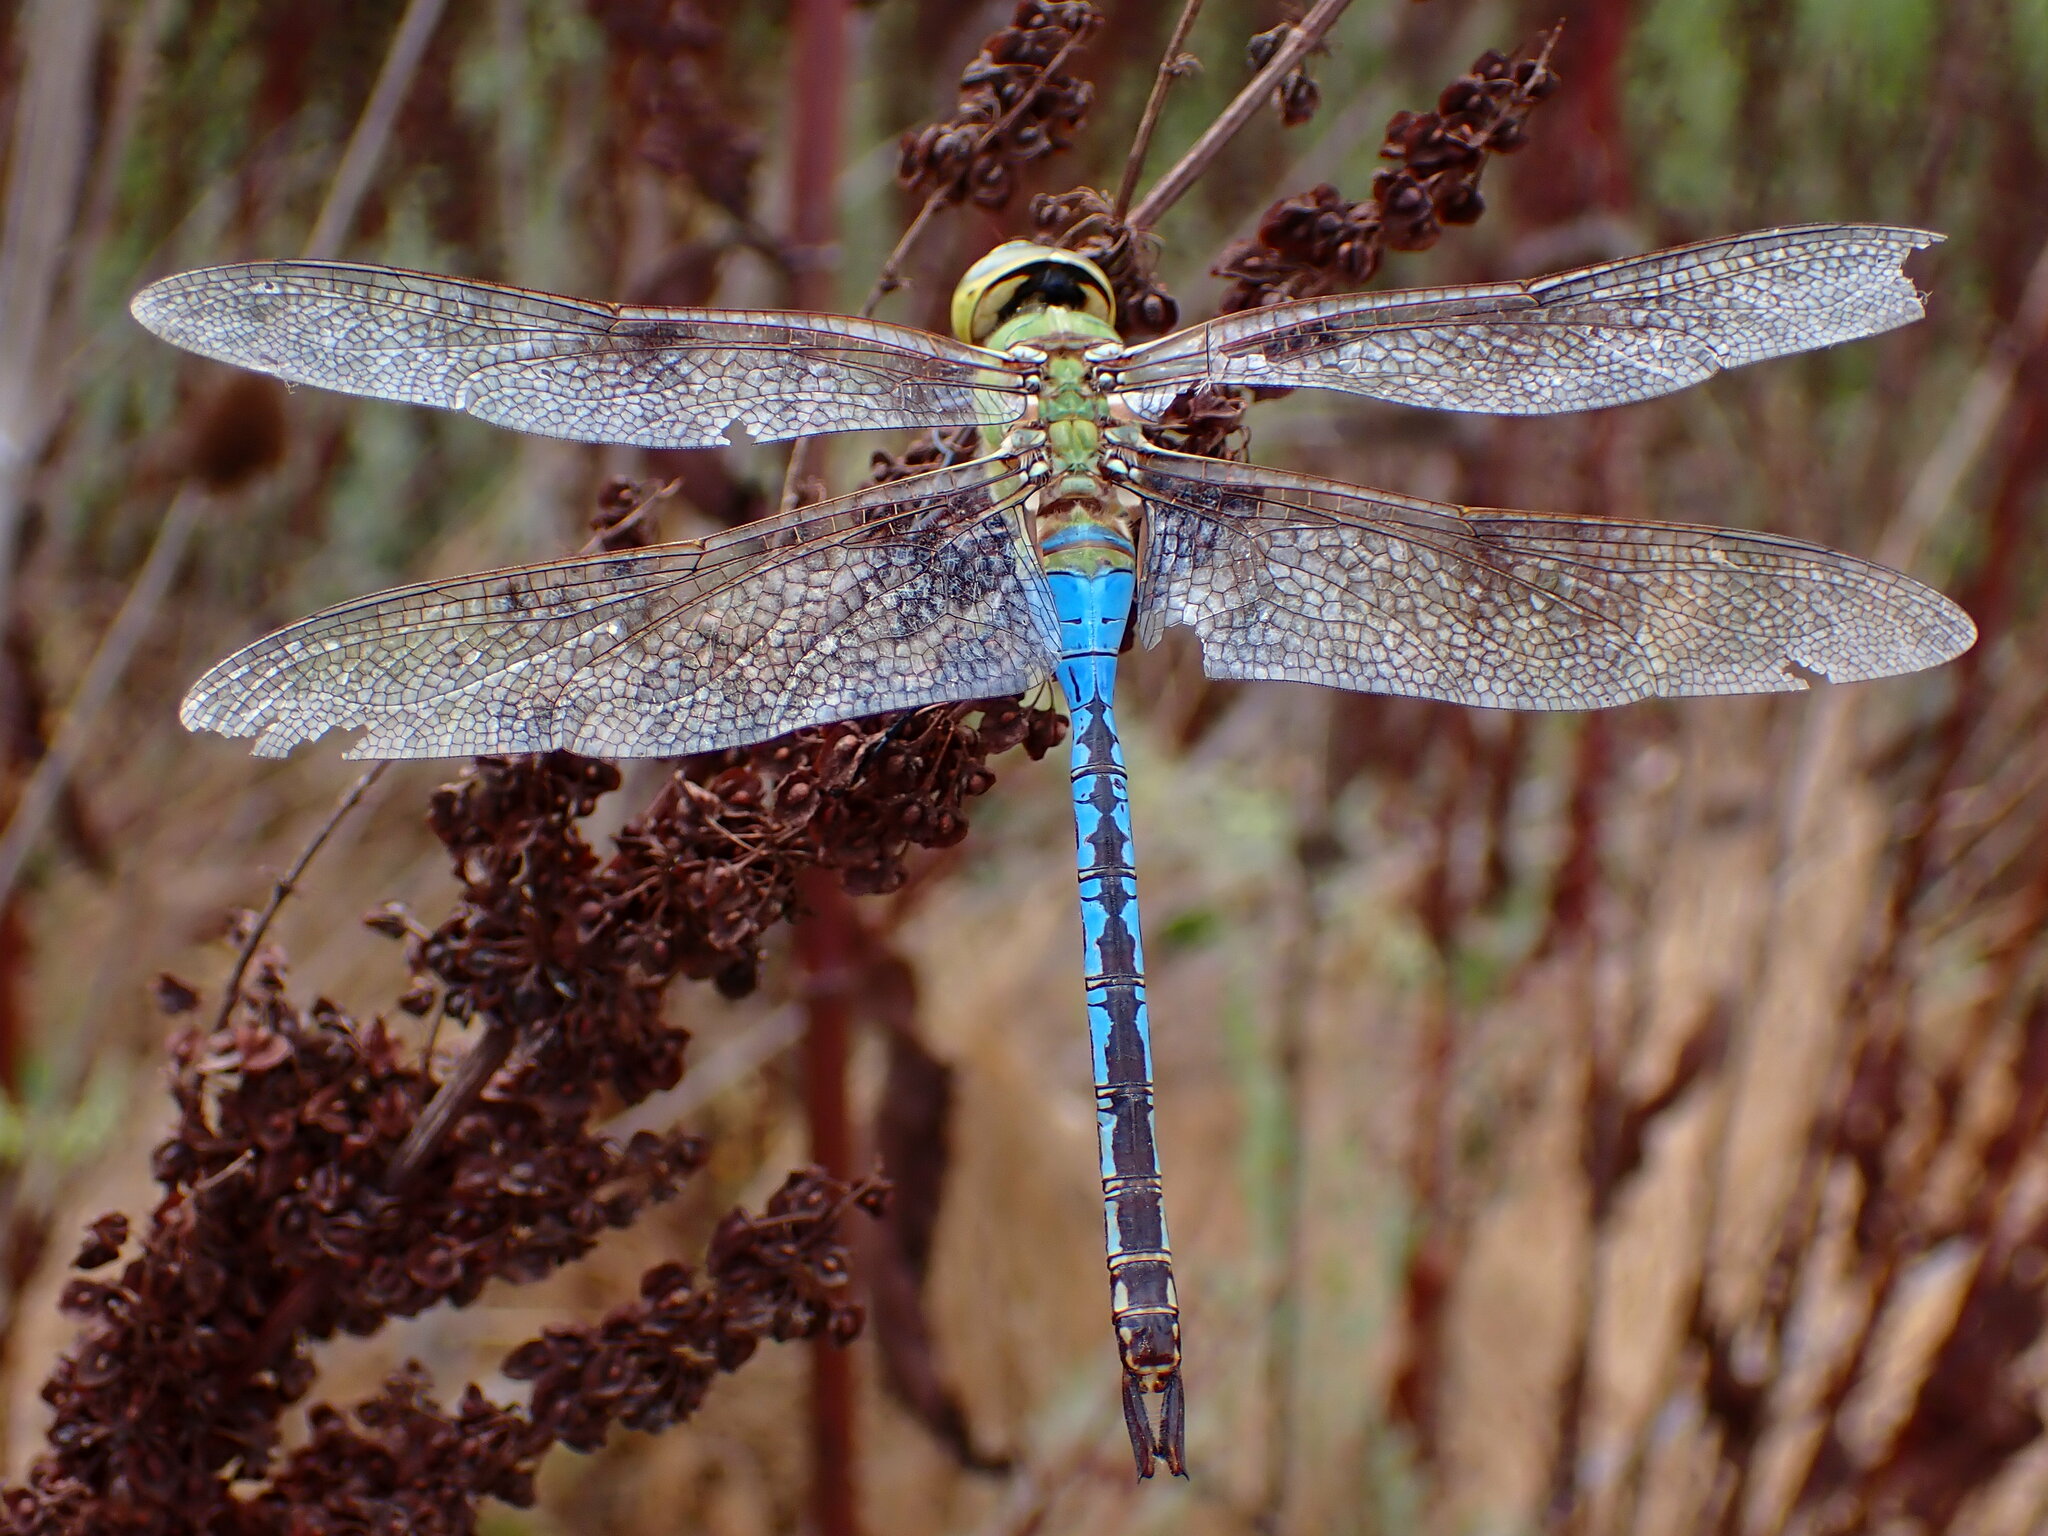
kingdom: Animalia
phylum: Arthropoda
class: Insecta
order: Odonata
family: Aeshnidae
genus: Anax
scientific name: Anax junius
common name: Common green darner
